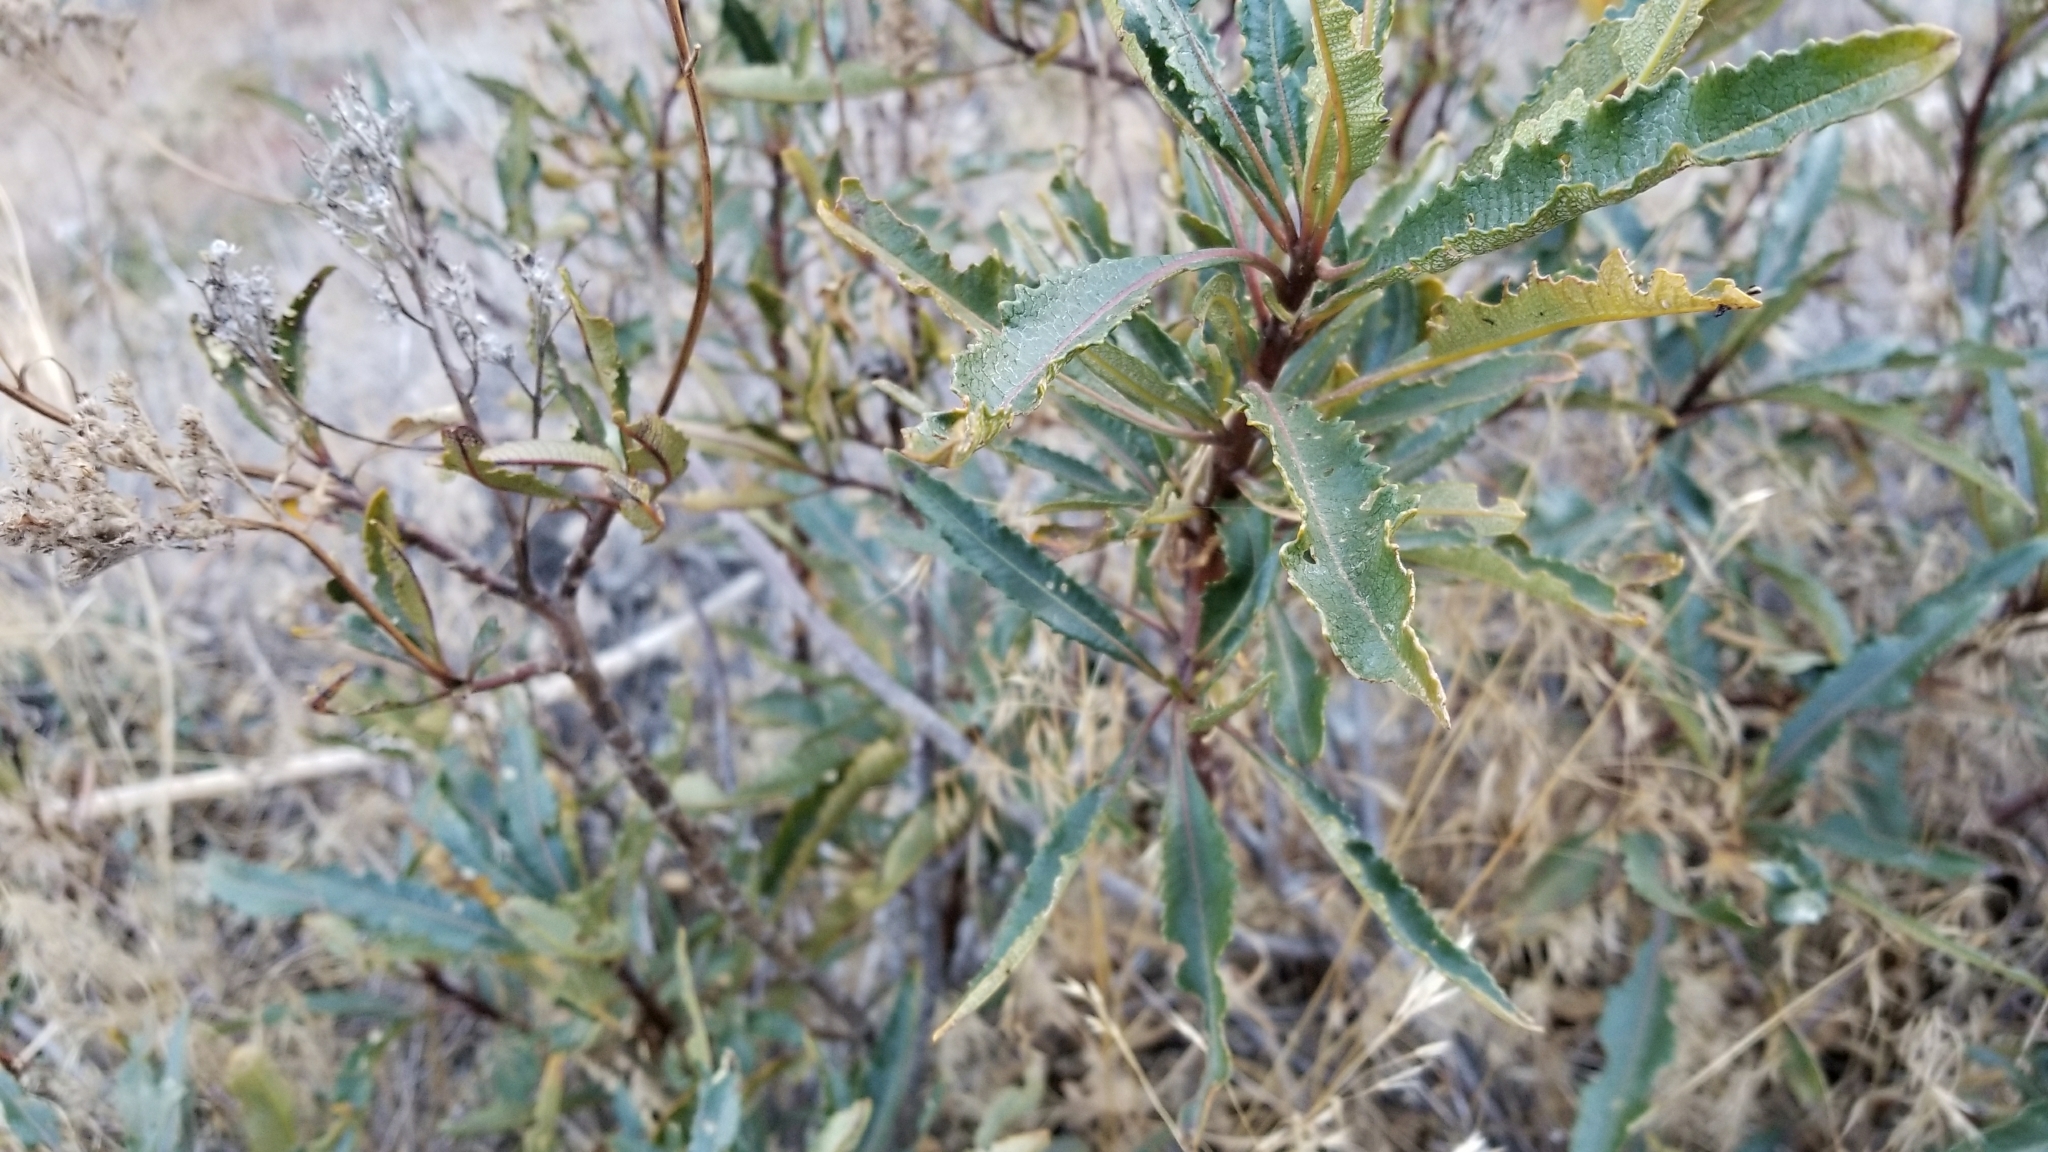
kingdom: Plantae
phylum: Tracheophyta
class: Magnoliopsida
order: Boraginales
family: Namaceae
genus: Eriodictyon
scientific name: Eriodictyon trichocalyx
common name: Hairy yerba-santa
